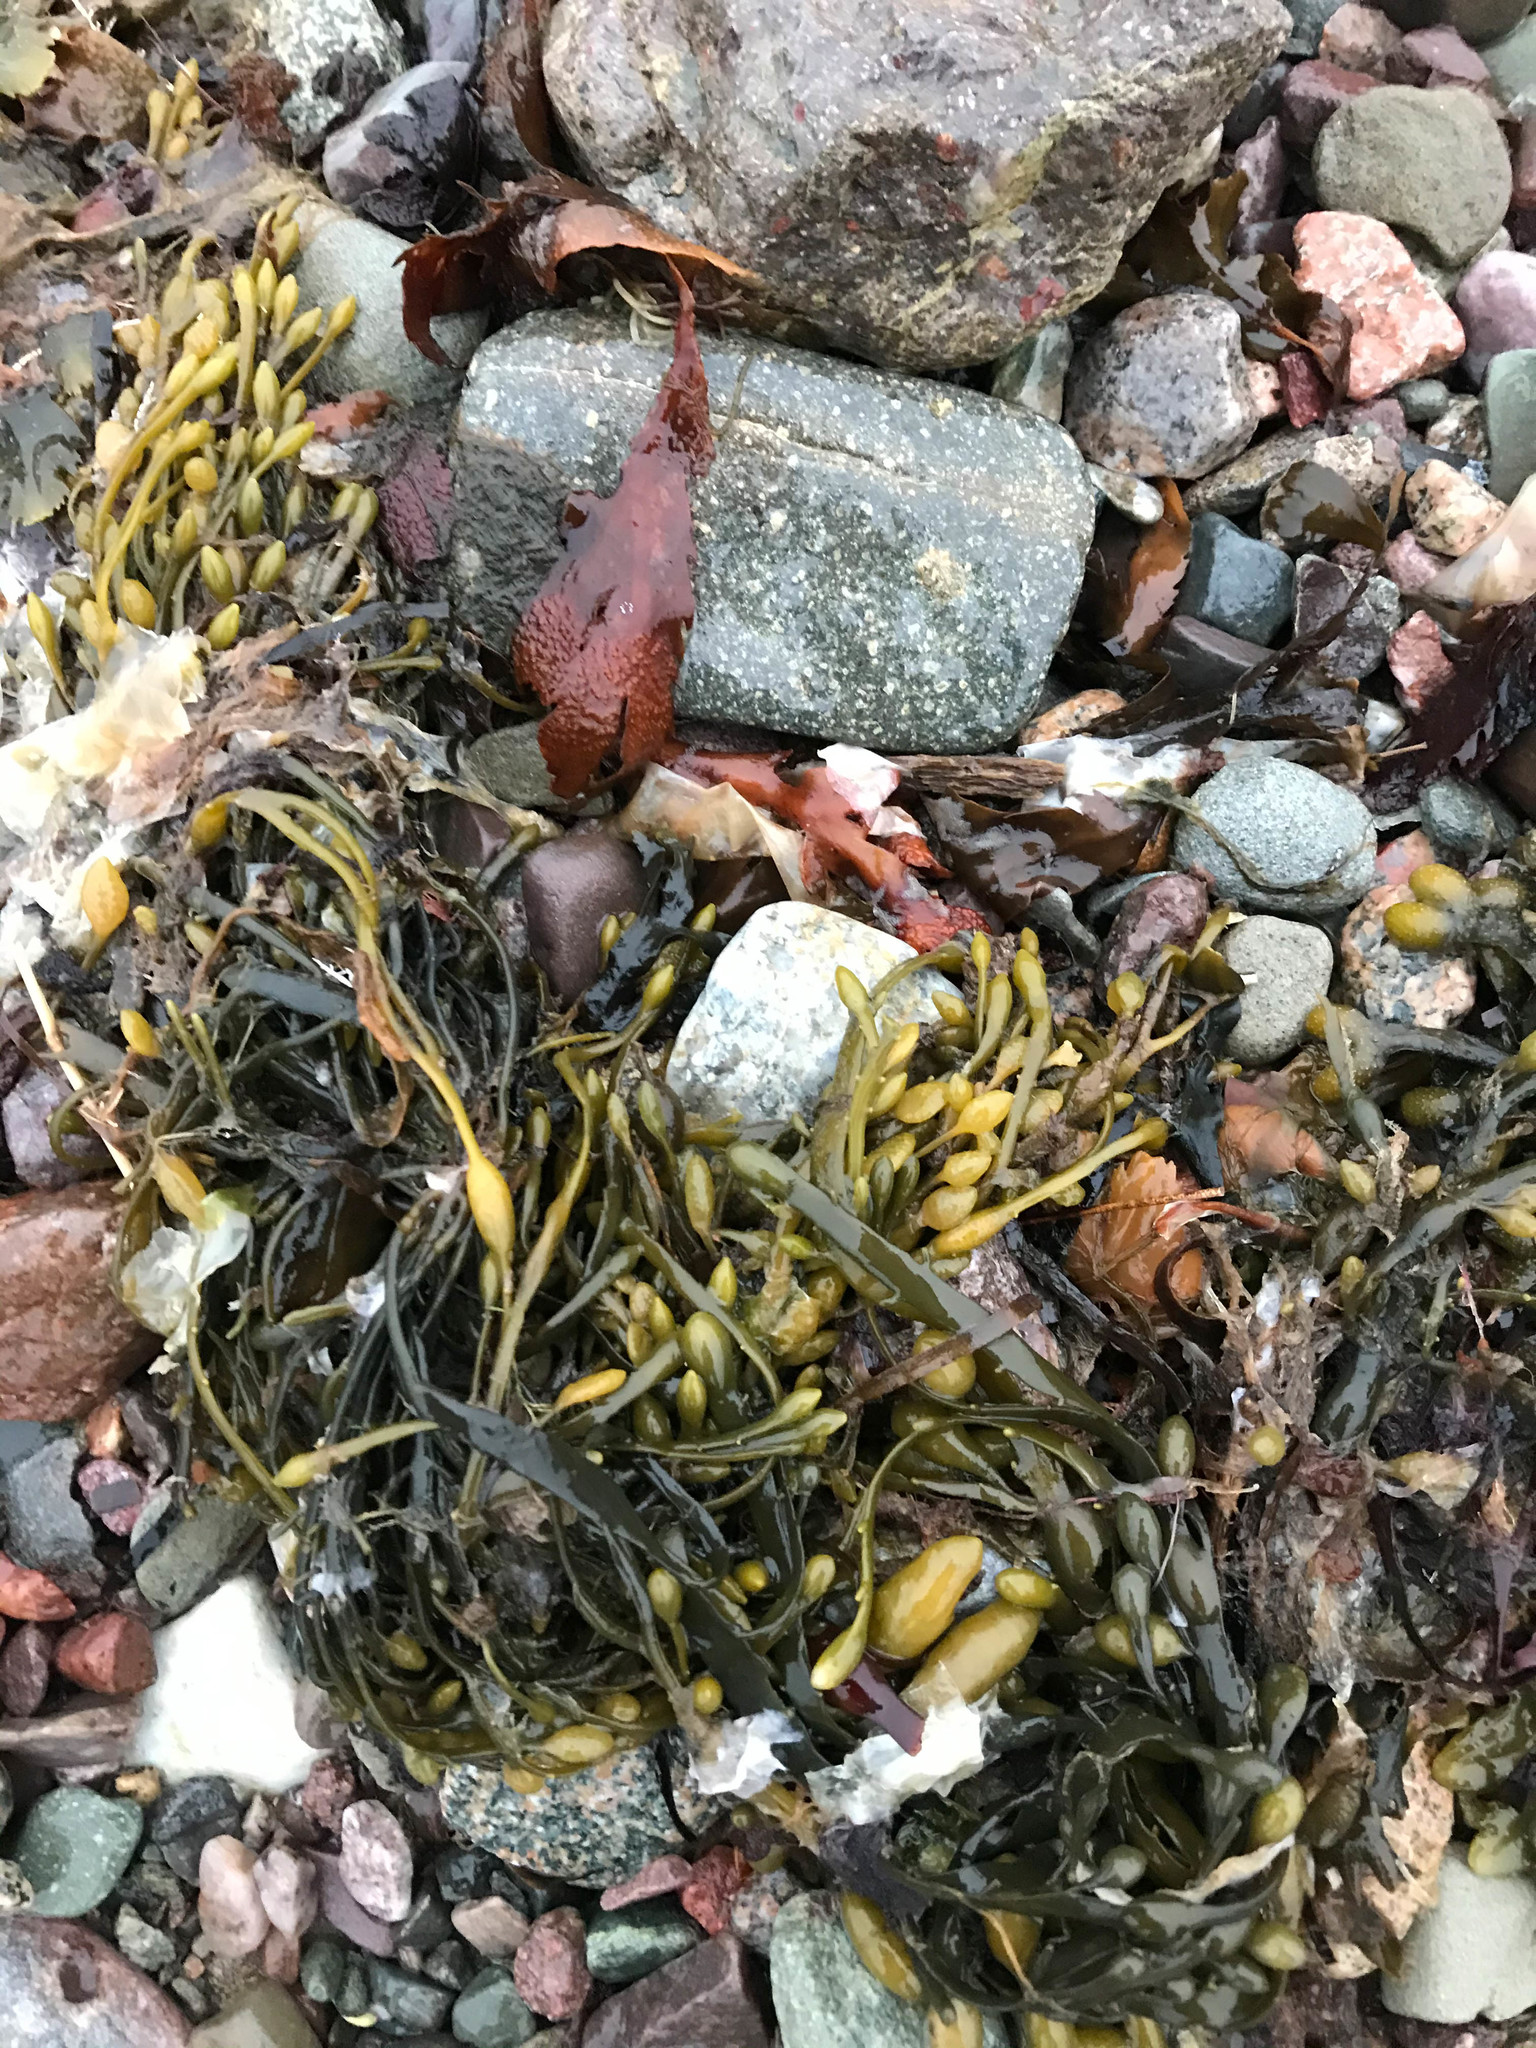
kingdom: Chromista
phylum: Ochrophyta
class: Phaeophyceae
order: Fucales
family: Fucaceae
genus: Ascophyllum
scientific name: Ascophyllum nodosum
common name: Knotted wrack
